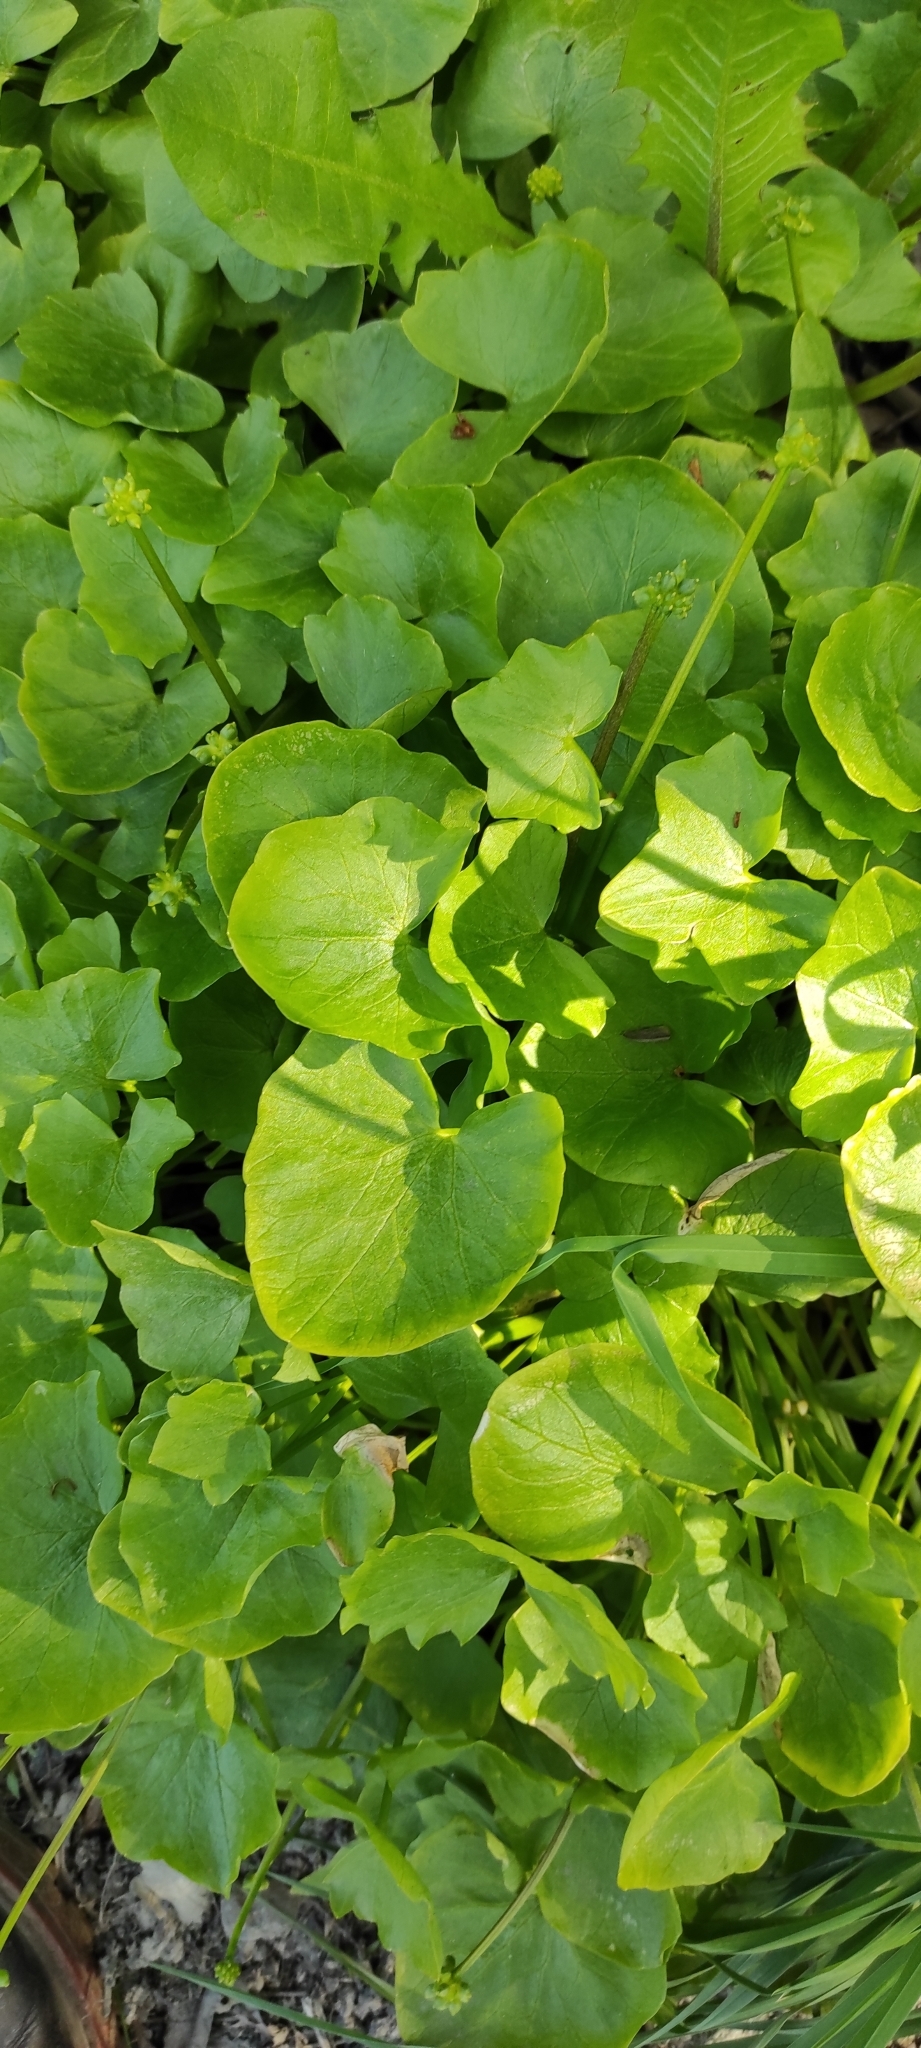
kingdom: Plantae
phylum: Tracheophyta
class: Magnoliopsida
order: Ranunculales
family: Ranunculaceae
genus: Ficaria
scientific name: Ficaria verna
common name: Lesser celandine
